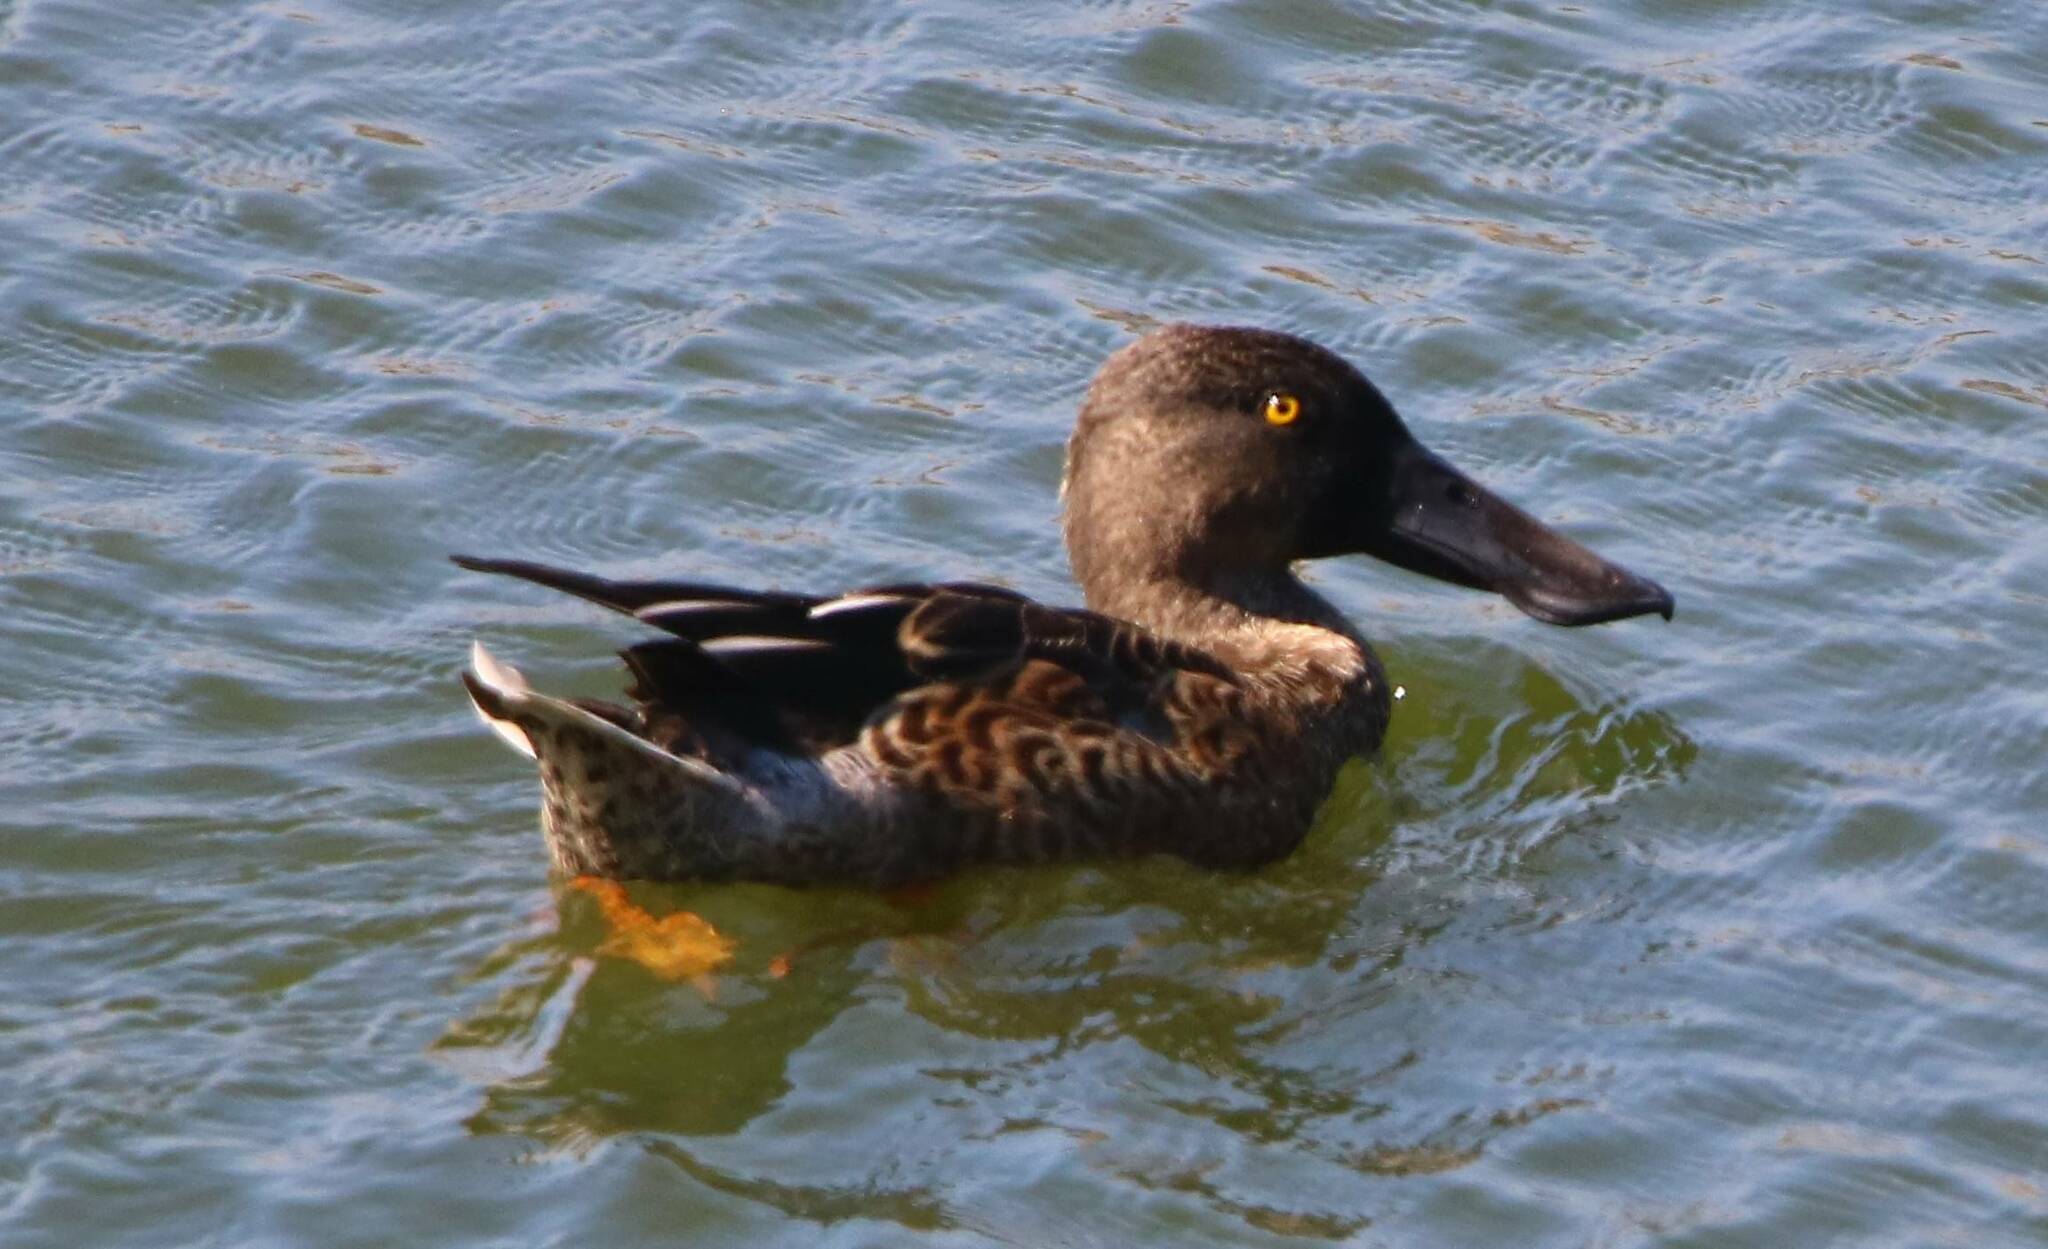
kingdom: Animalia
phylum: Chordata
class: Aves
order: Anseriformes
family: Anatidae
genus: Spatula
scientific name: Spatula clypeata
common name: Northern shoveler
